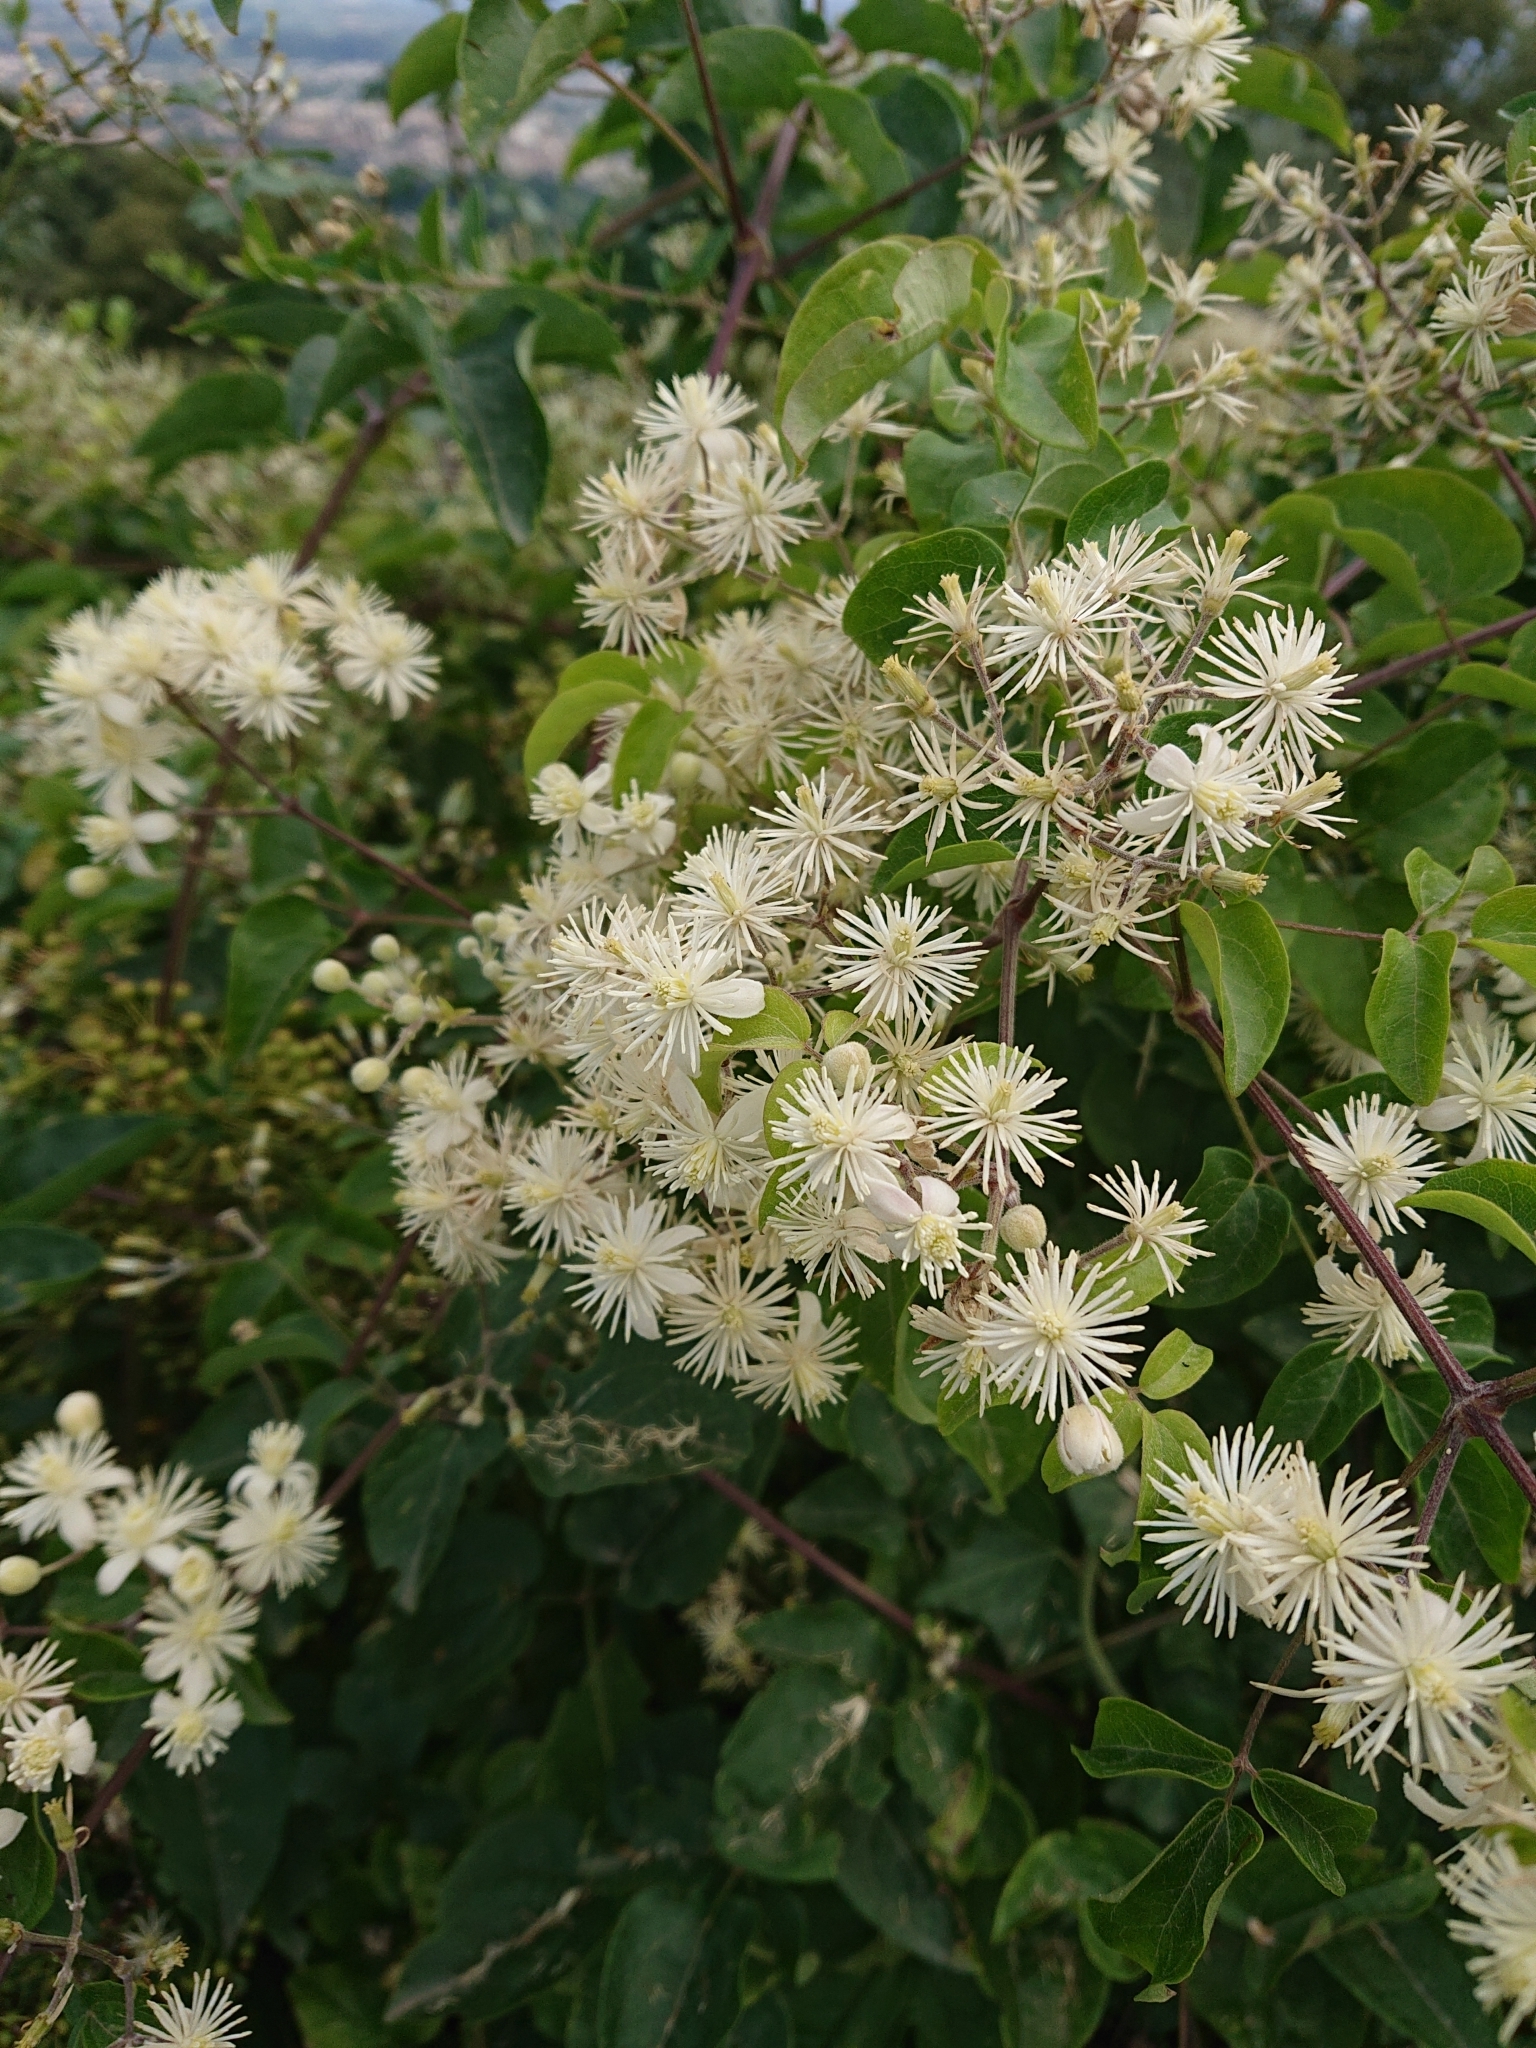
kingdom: Plantae
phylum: Tracheophyta
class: Magnoliopsida
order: Ranunculales
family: Ranunculaceae
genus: Clematis
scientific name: Clematis vitalba
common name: Evergreen clematis
